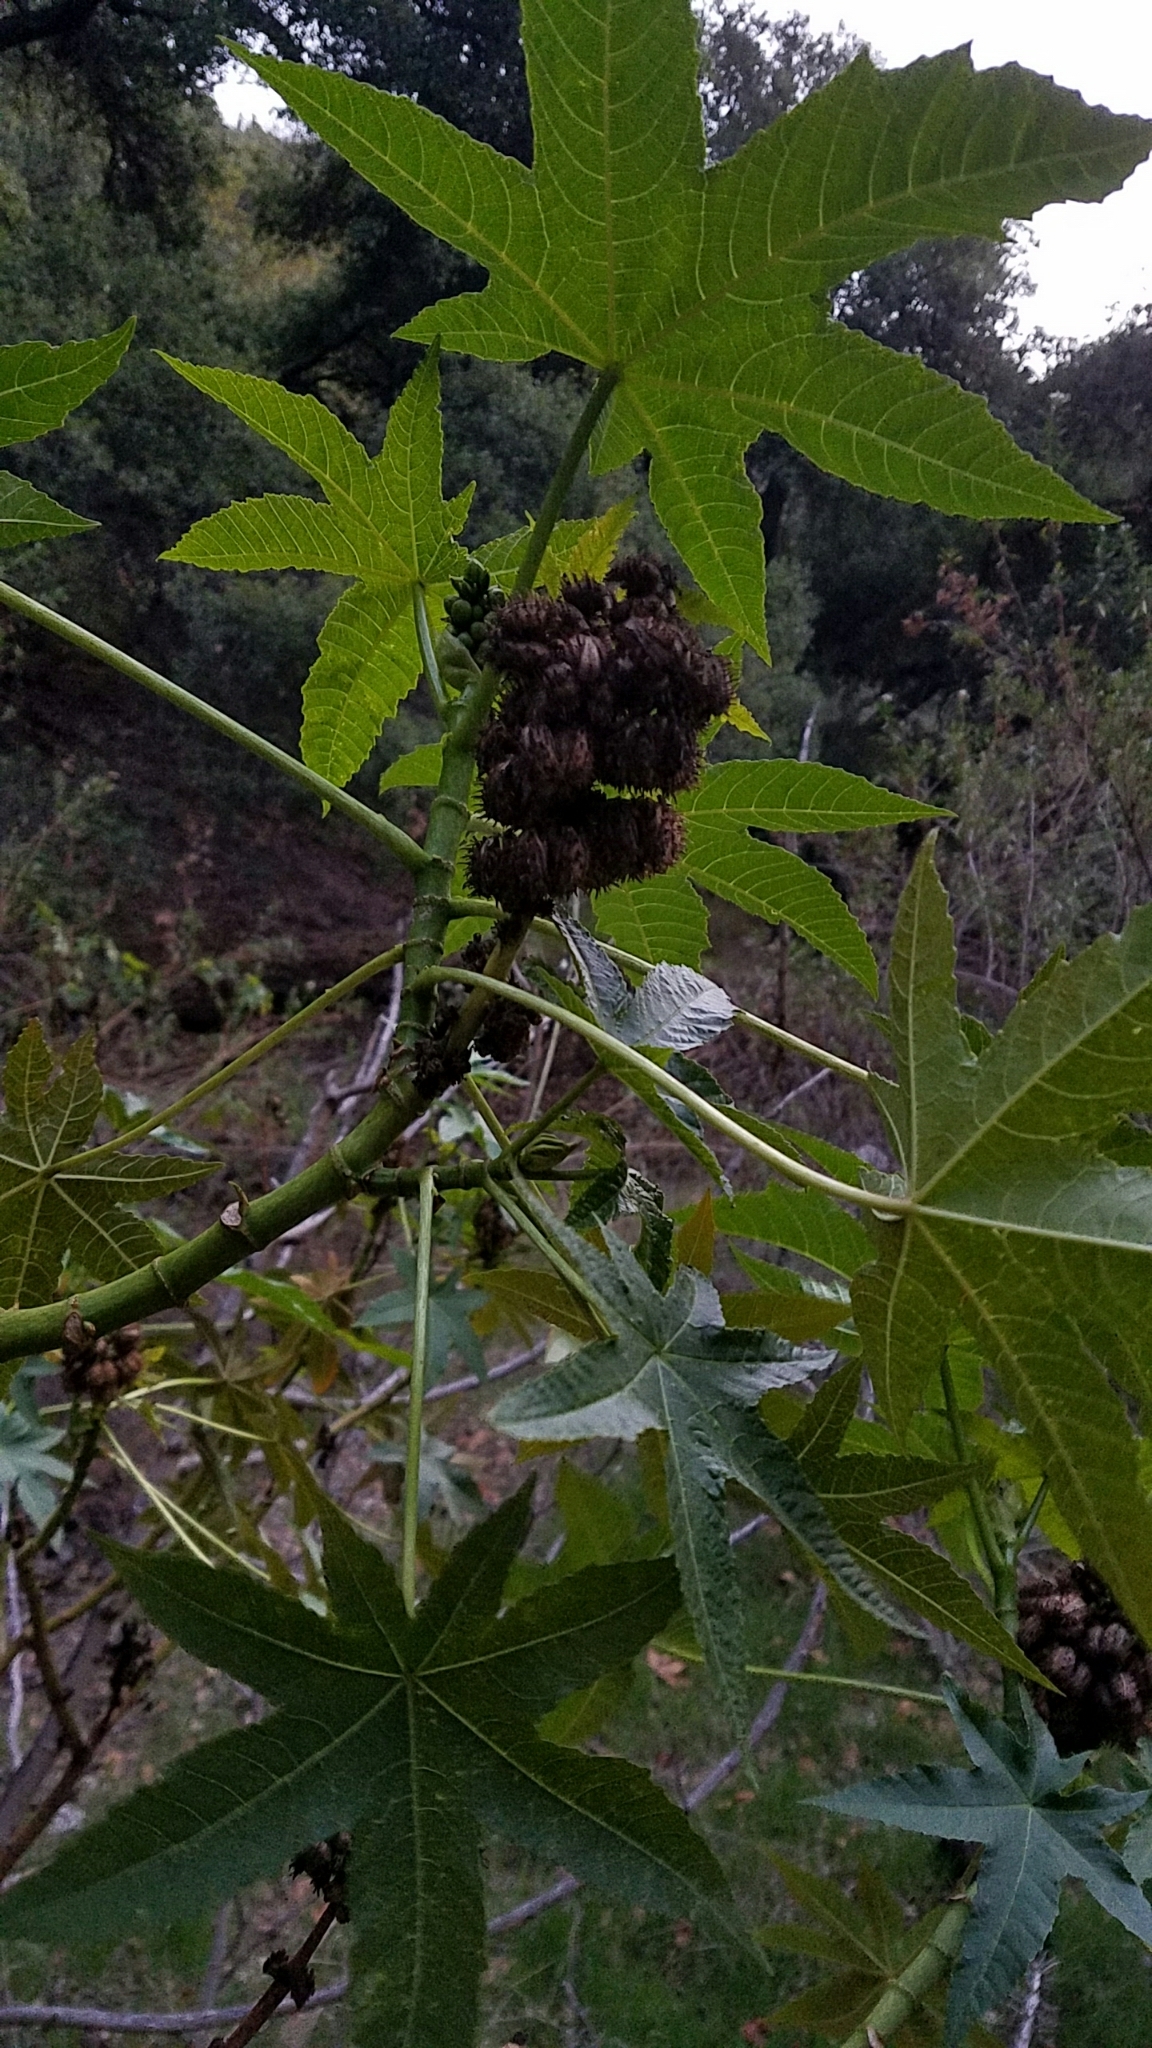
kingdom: Plantae
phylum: Tracheophyta
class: Magnoliopsida
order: Malpighiales
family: Euphorbiaceae
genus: Ricinus
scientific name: Ricinus communis
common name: Castor-oil-plant
